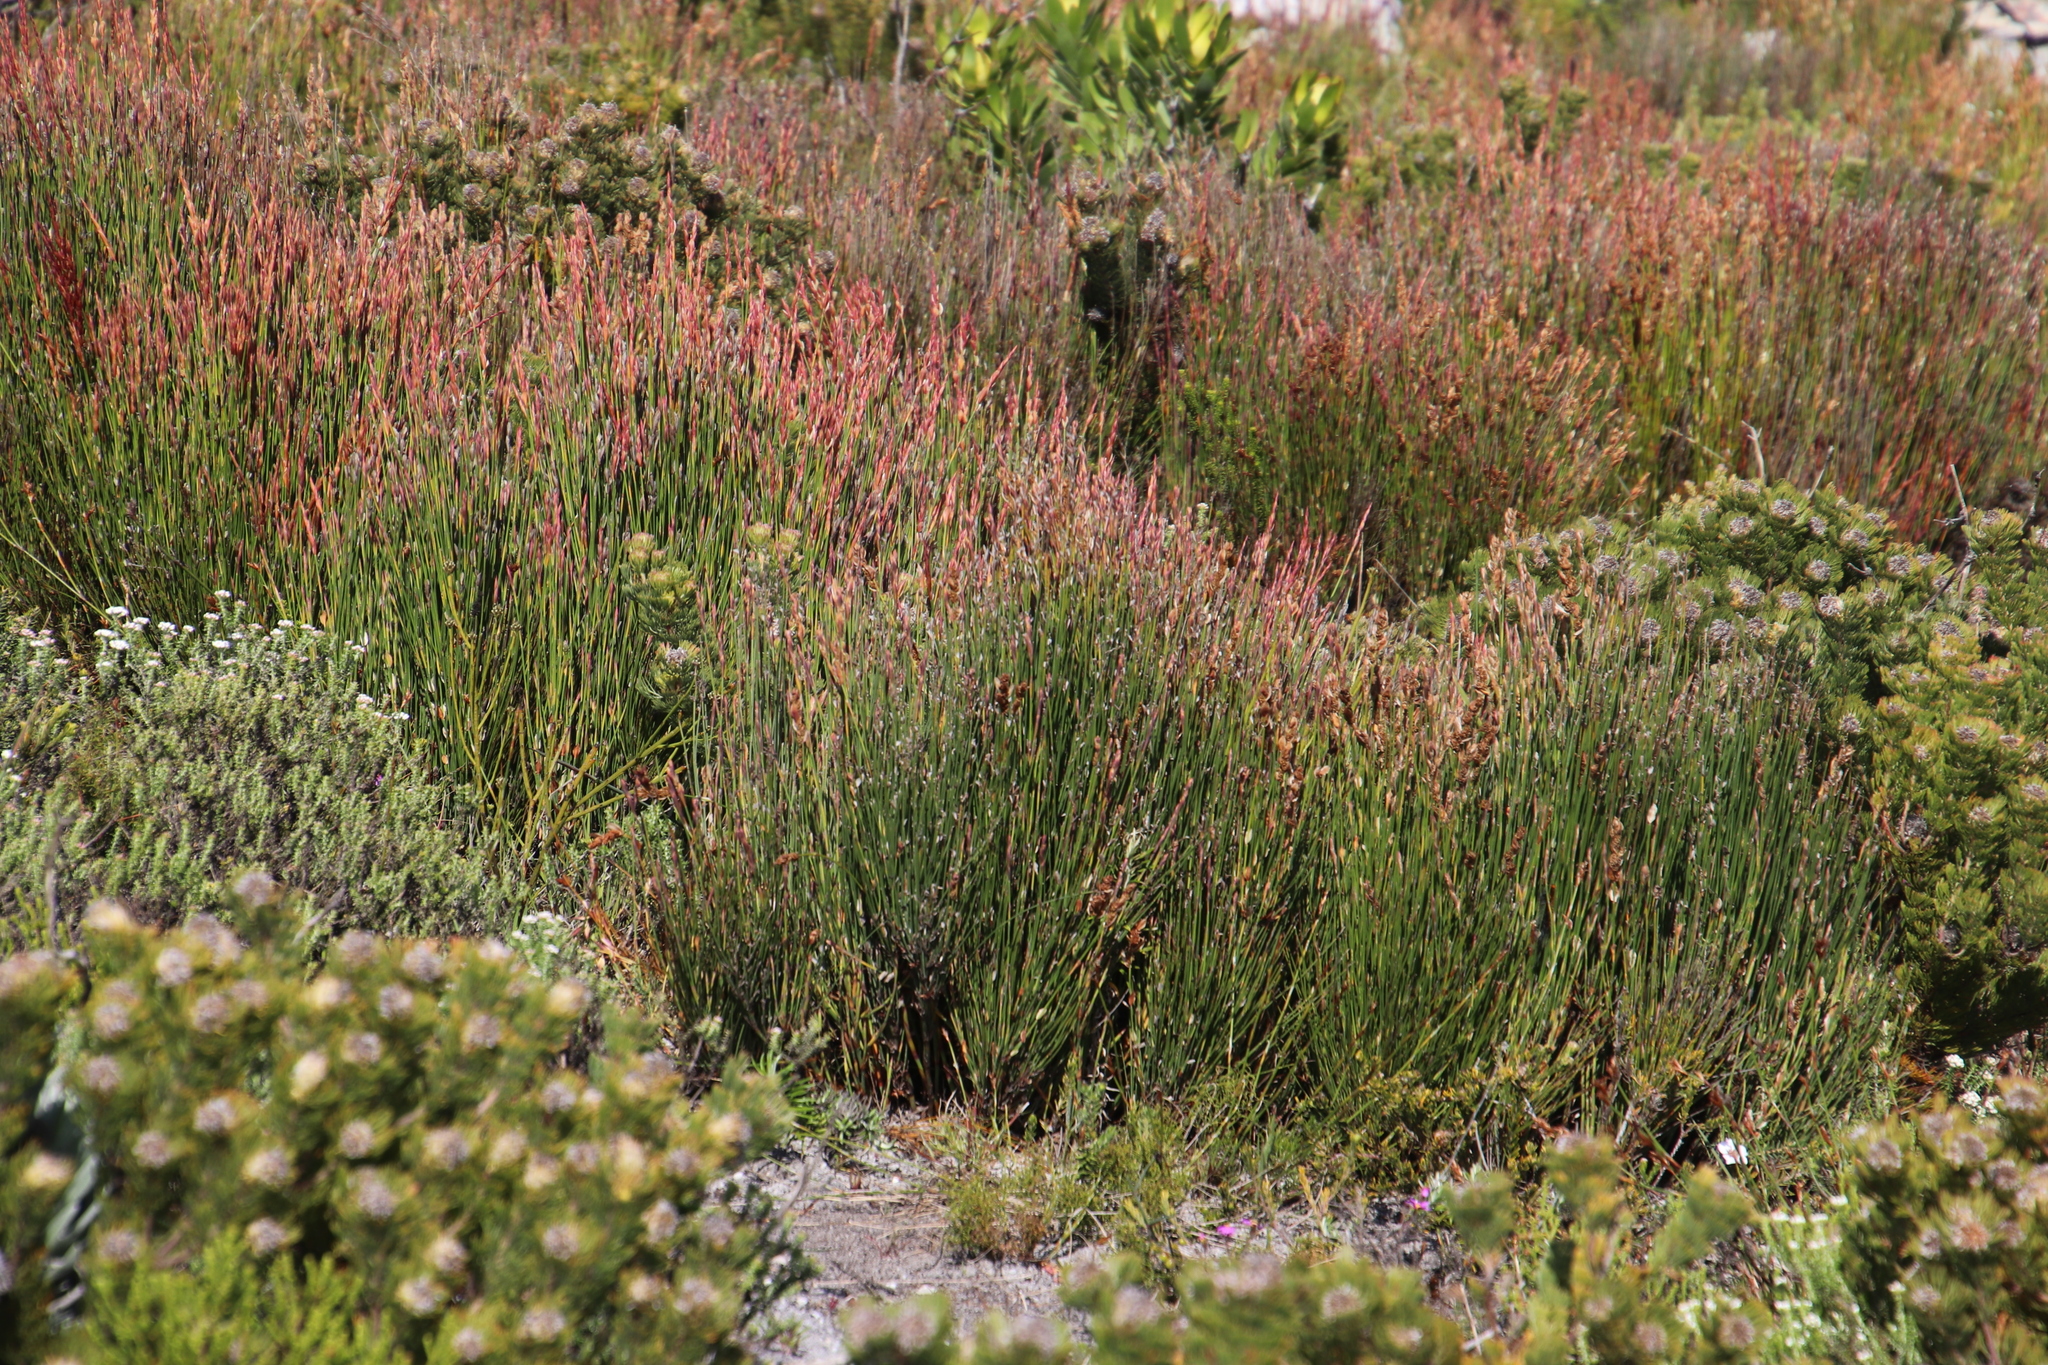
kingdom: Plantae
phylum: Tracheophyta
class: Liliopsida
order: Poales
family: Restionaceae
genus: Elegia
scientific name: Elegia stipularis
